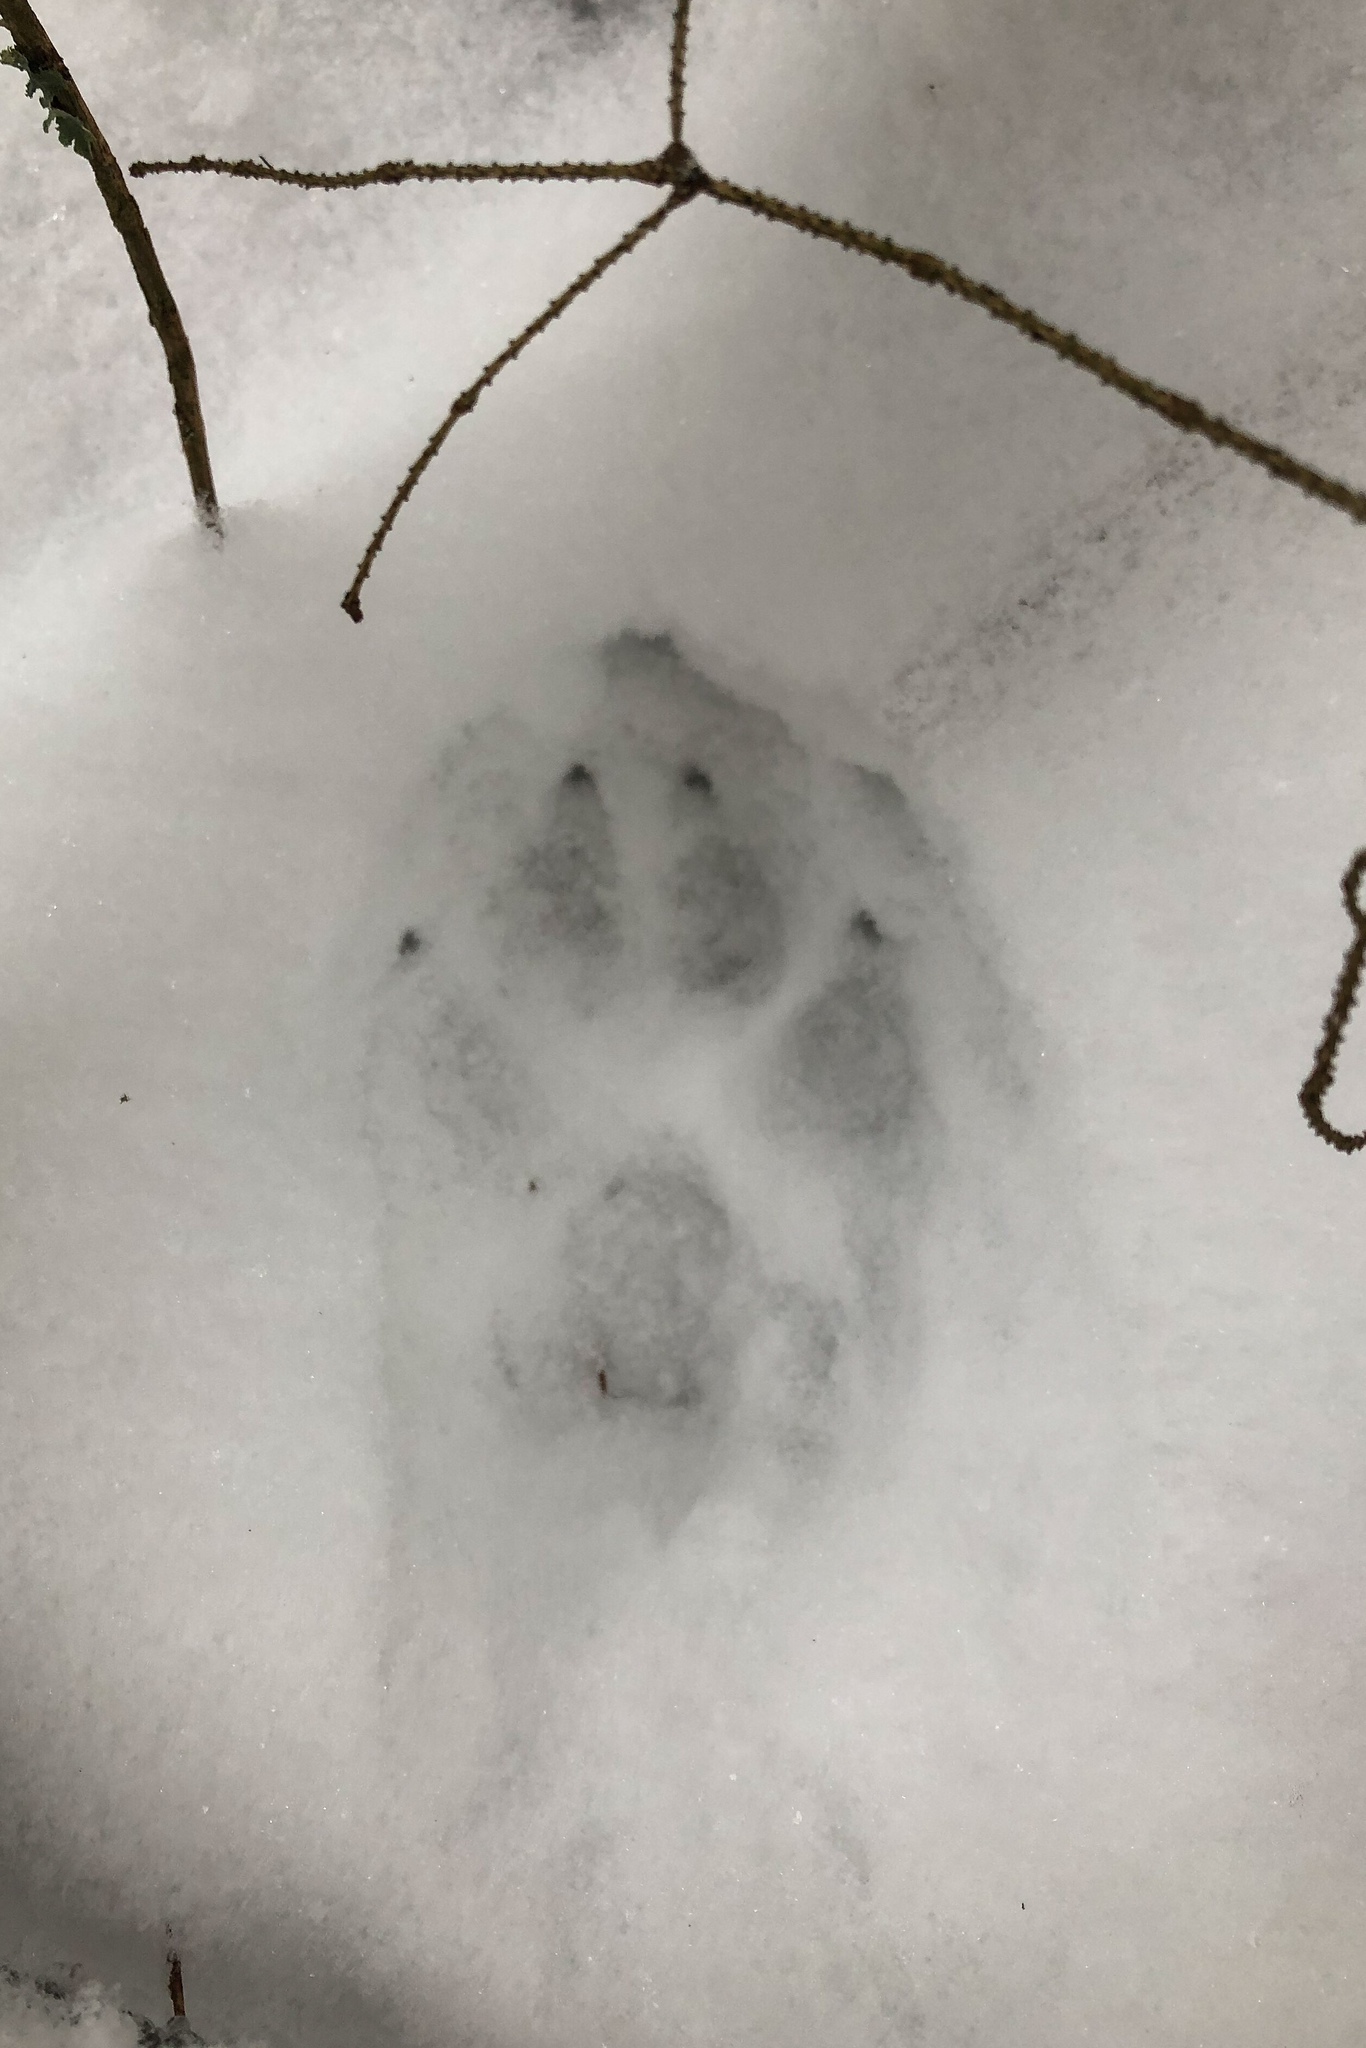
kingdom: Animalia
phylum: Chordata
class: Mammalia
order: Carnivora
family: Canidae
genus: Canis
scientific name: Canis lupus
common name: Gray wolf
